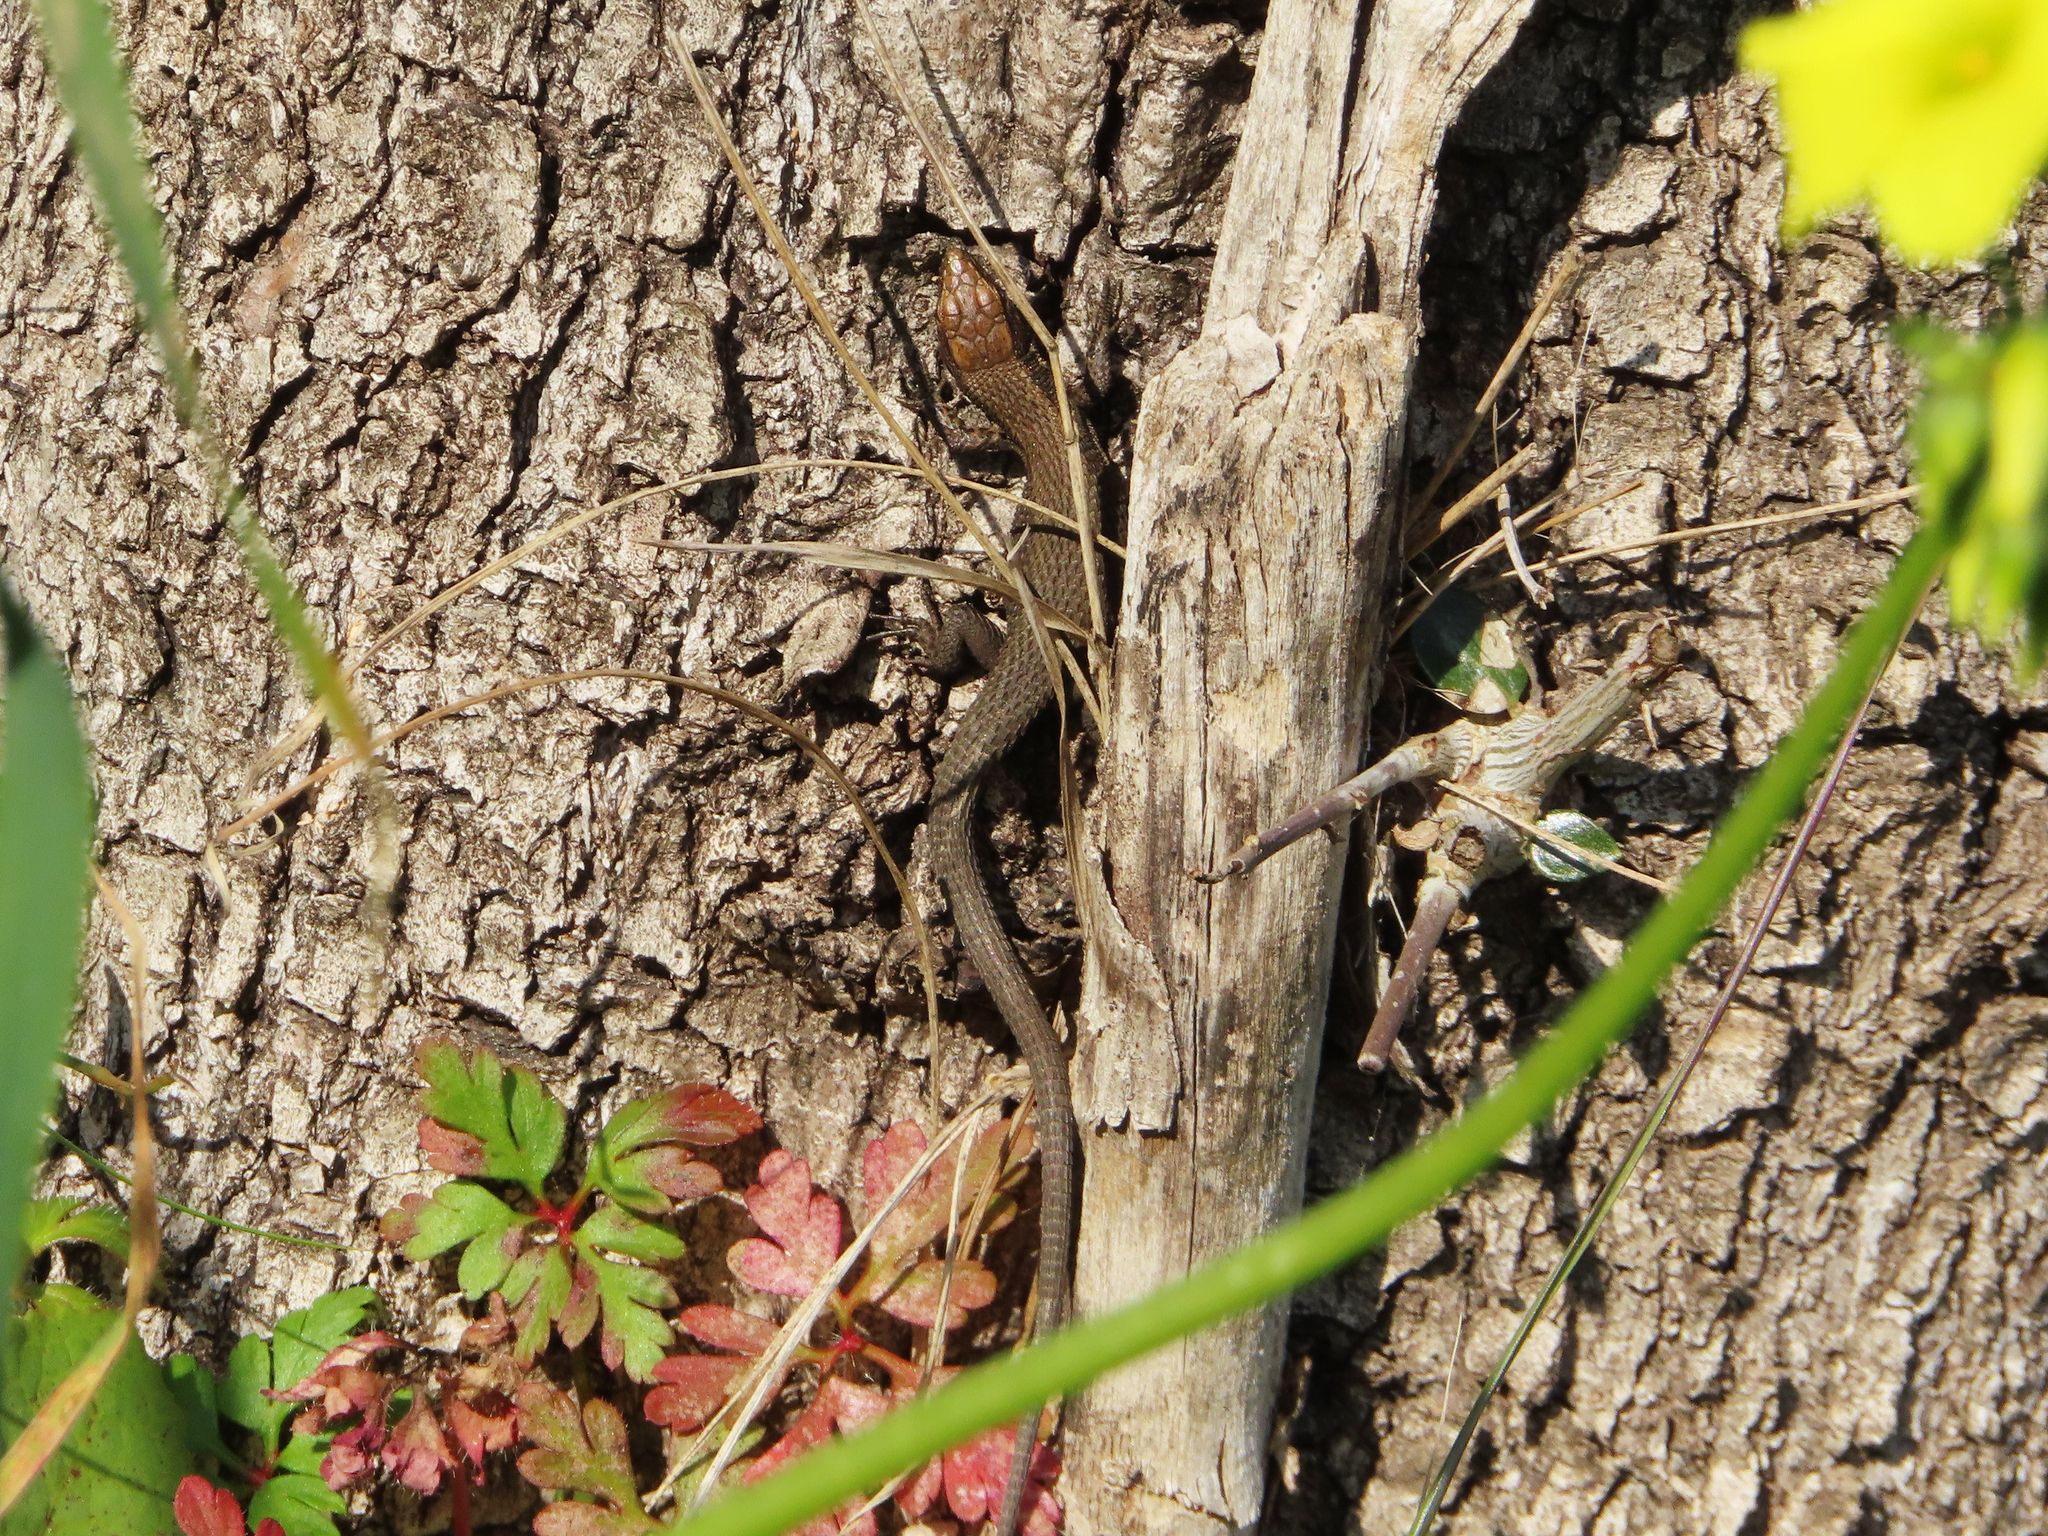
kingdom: Animalia
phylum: Chordata
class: Squamata
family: Lacertidae
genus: Algyroides
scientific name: Algyroides moreoticus
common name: Greek algyroides
